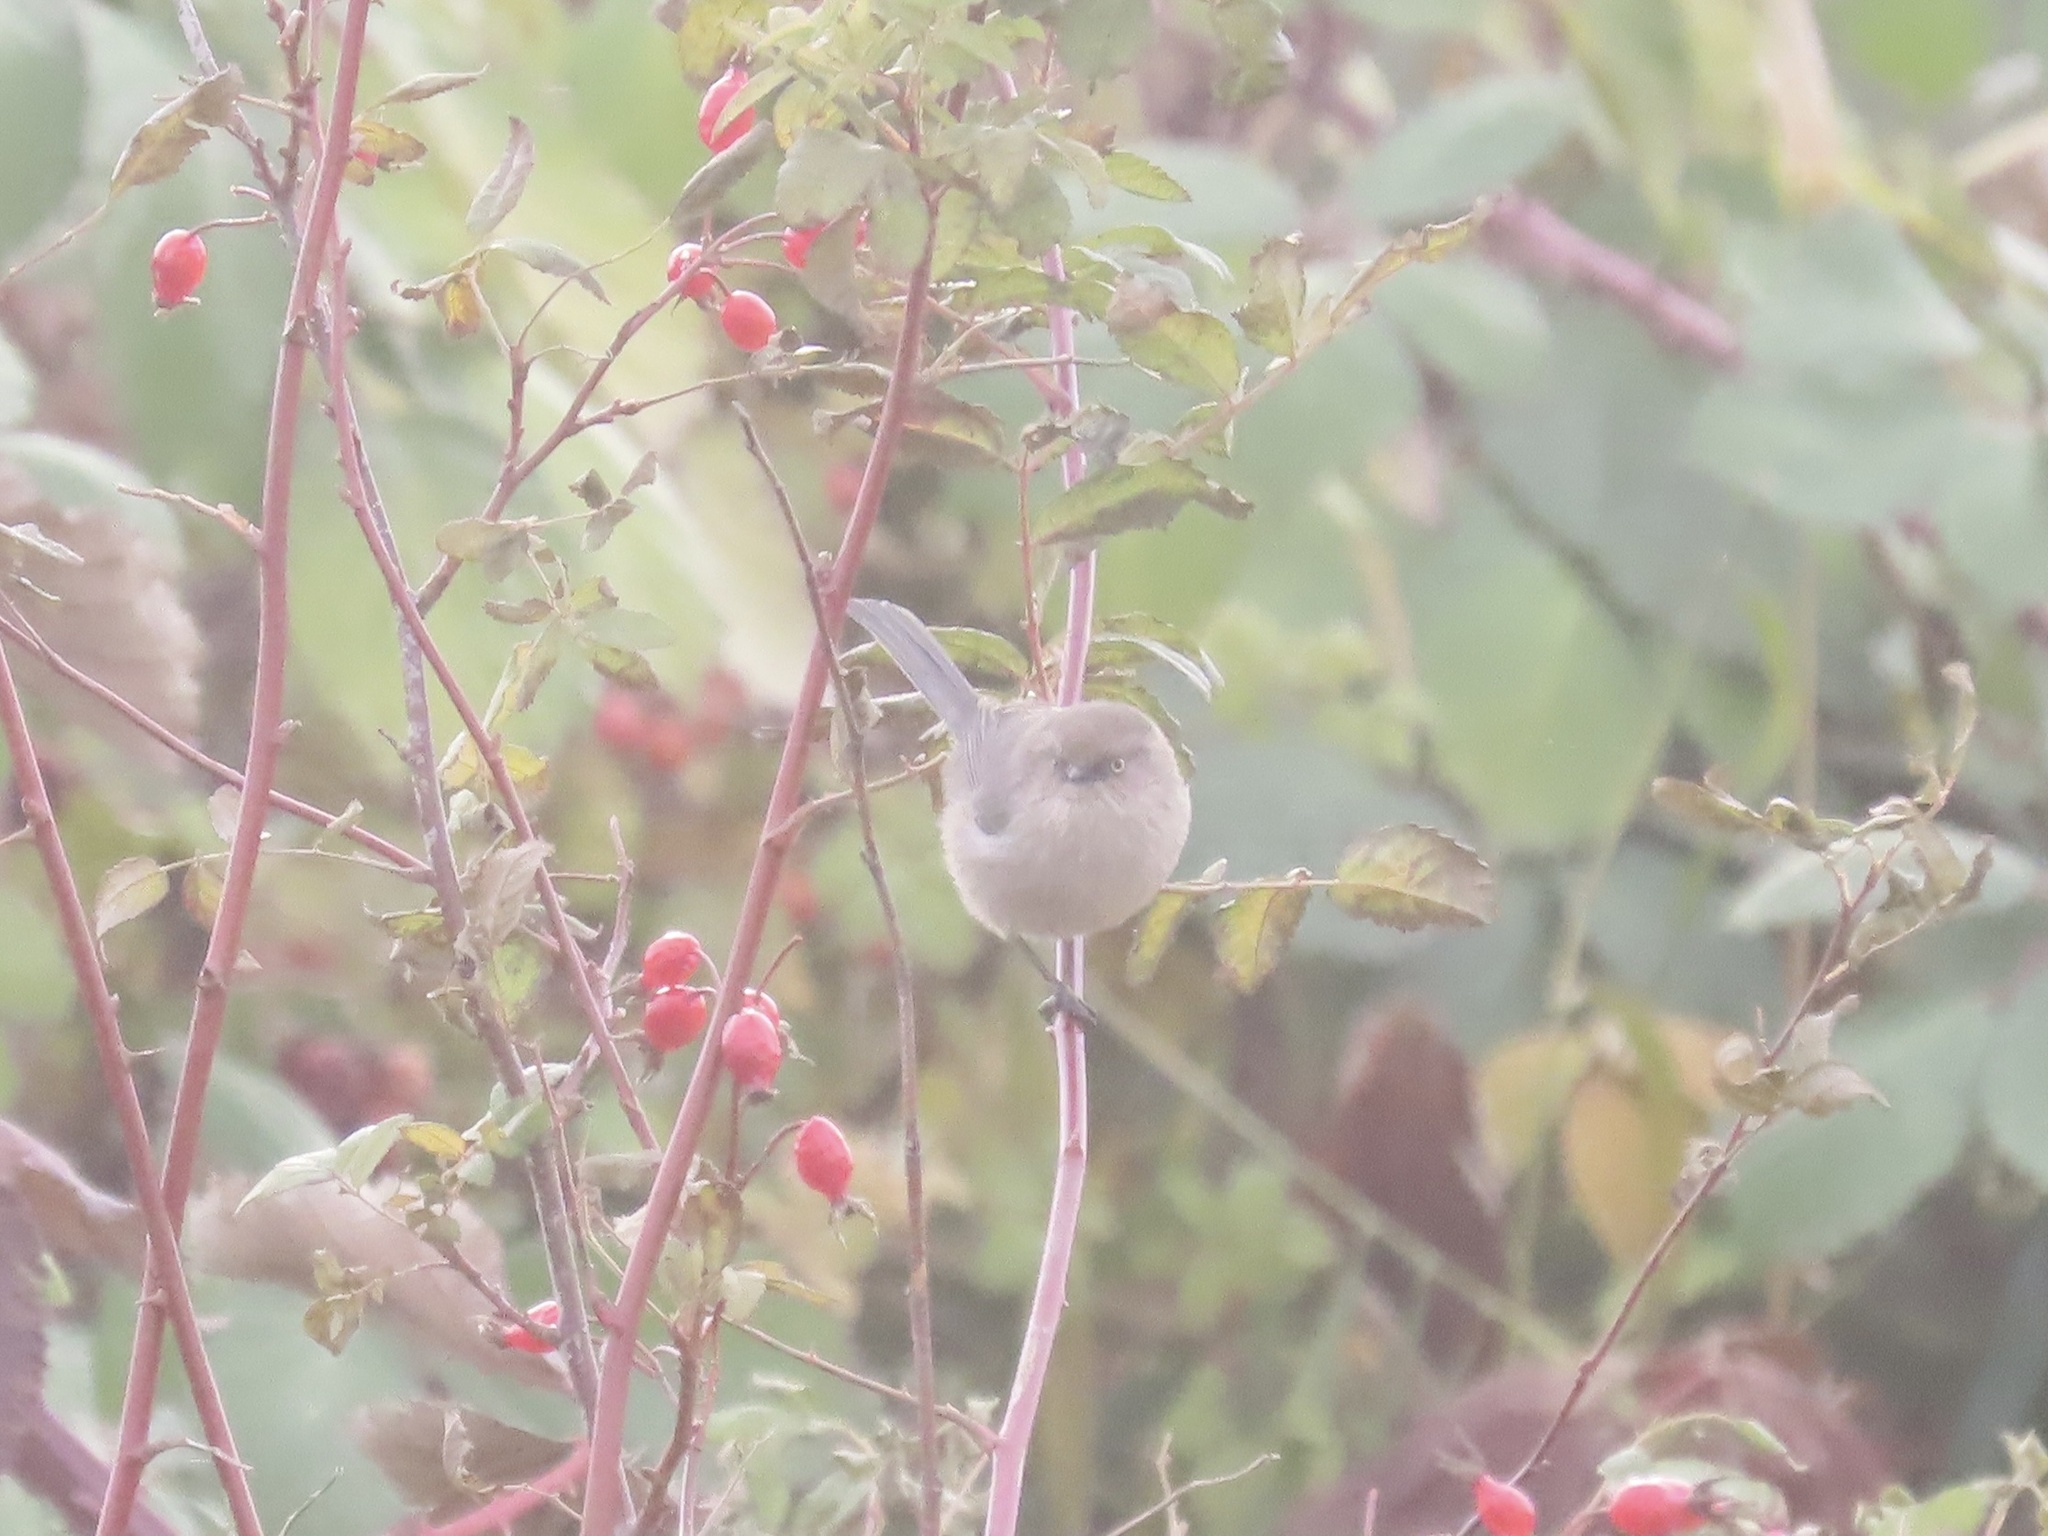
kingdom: Animalia
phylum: Chordata
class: Aves
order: Passeriformes
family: Aegithalidae
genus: Psaltriparus
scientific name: Psaltriparus minimus
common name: American bushtit
